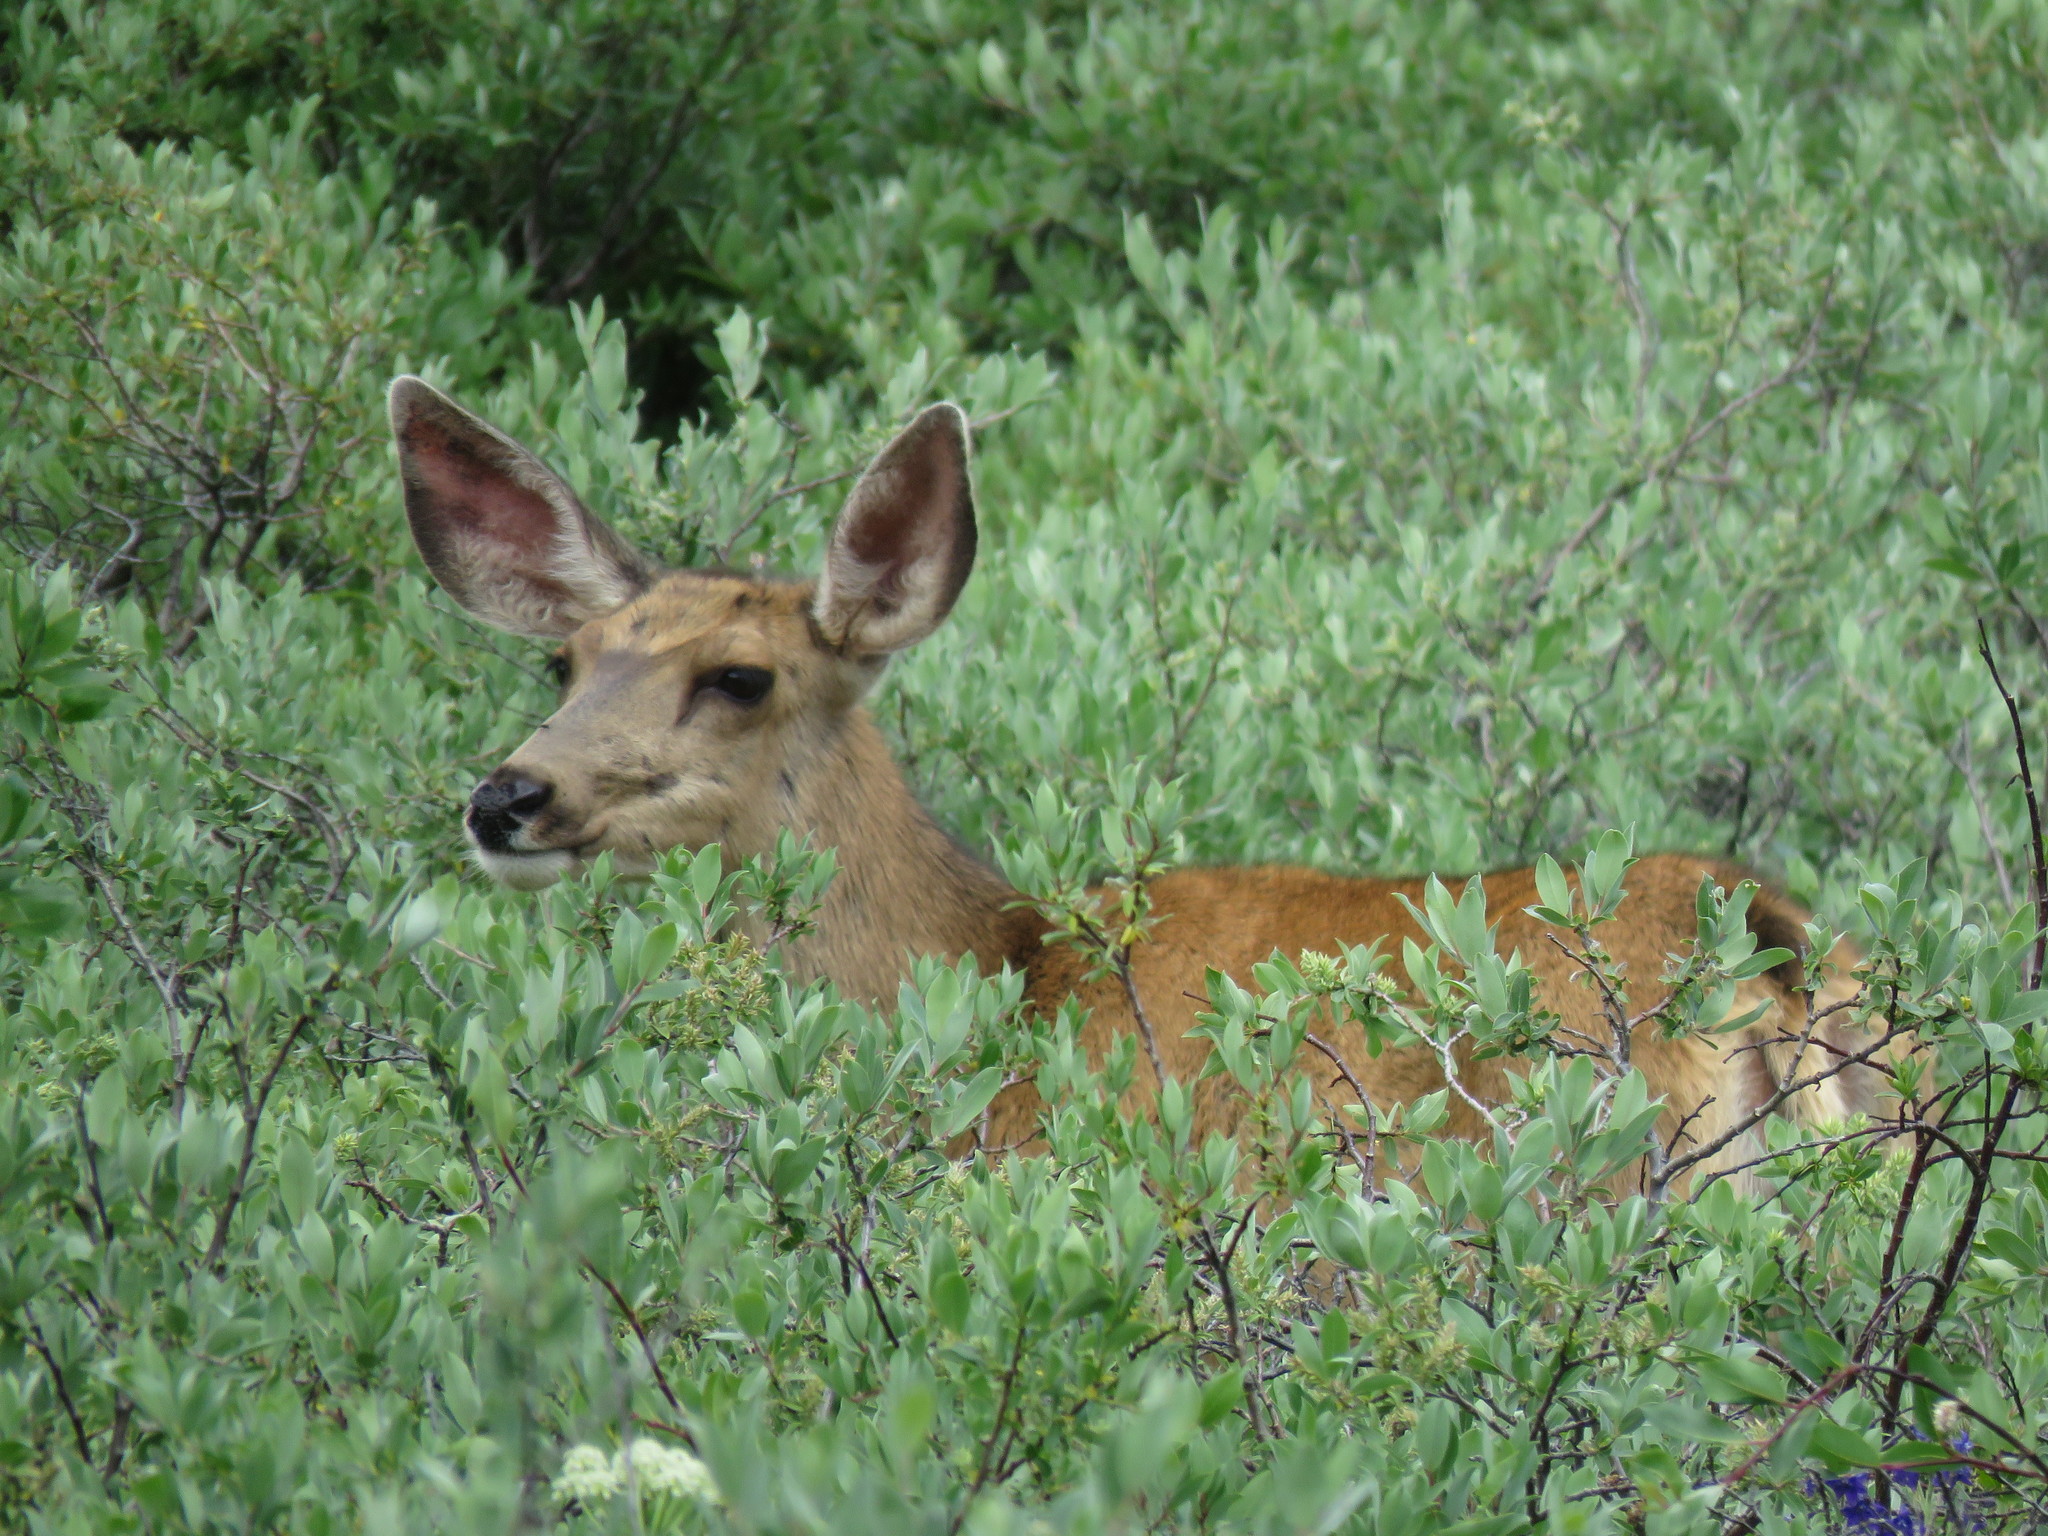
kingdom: Animalia
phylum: Chordata
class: Mammalia
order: Artiodactyla
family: Cervidae
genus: Odocoileus
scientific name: Odocoileus hemionus
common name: Mule deer
